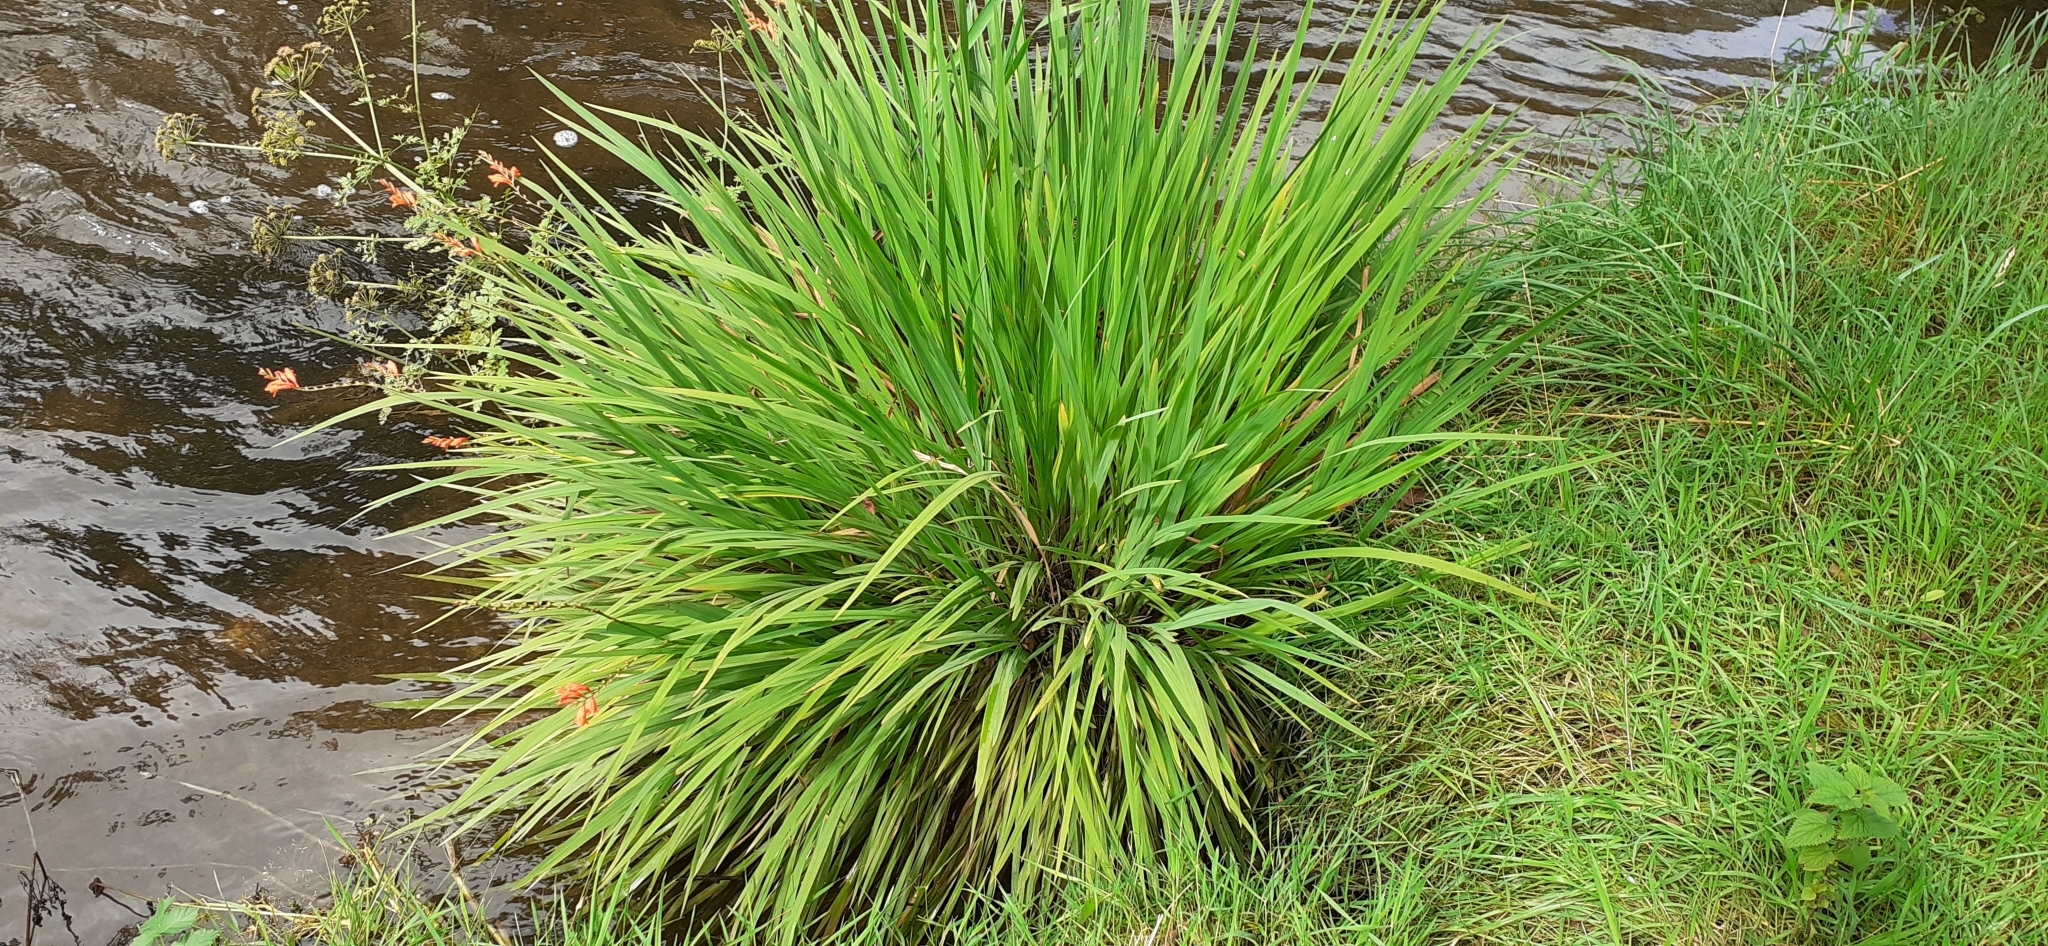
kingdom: Plantae
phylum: Tracheophyta
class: Liliopsida
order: Asparagales
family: Iridaceae
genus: Crocosmia
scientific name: Crocosmia crocosmiiflora
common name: Montbretia
